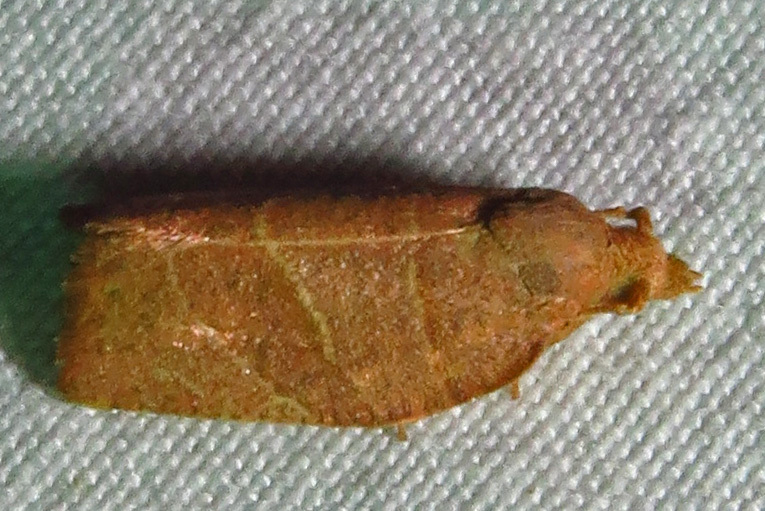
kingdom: Animalia
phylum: Arthropoda
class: Insecta
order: Lepidoptera
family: Tortricidae
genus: Pandemis
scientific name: Pandemis limitata
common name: Three-lined leafroller moth
